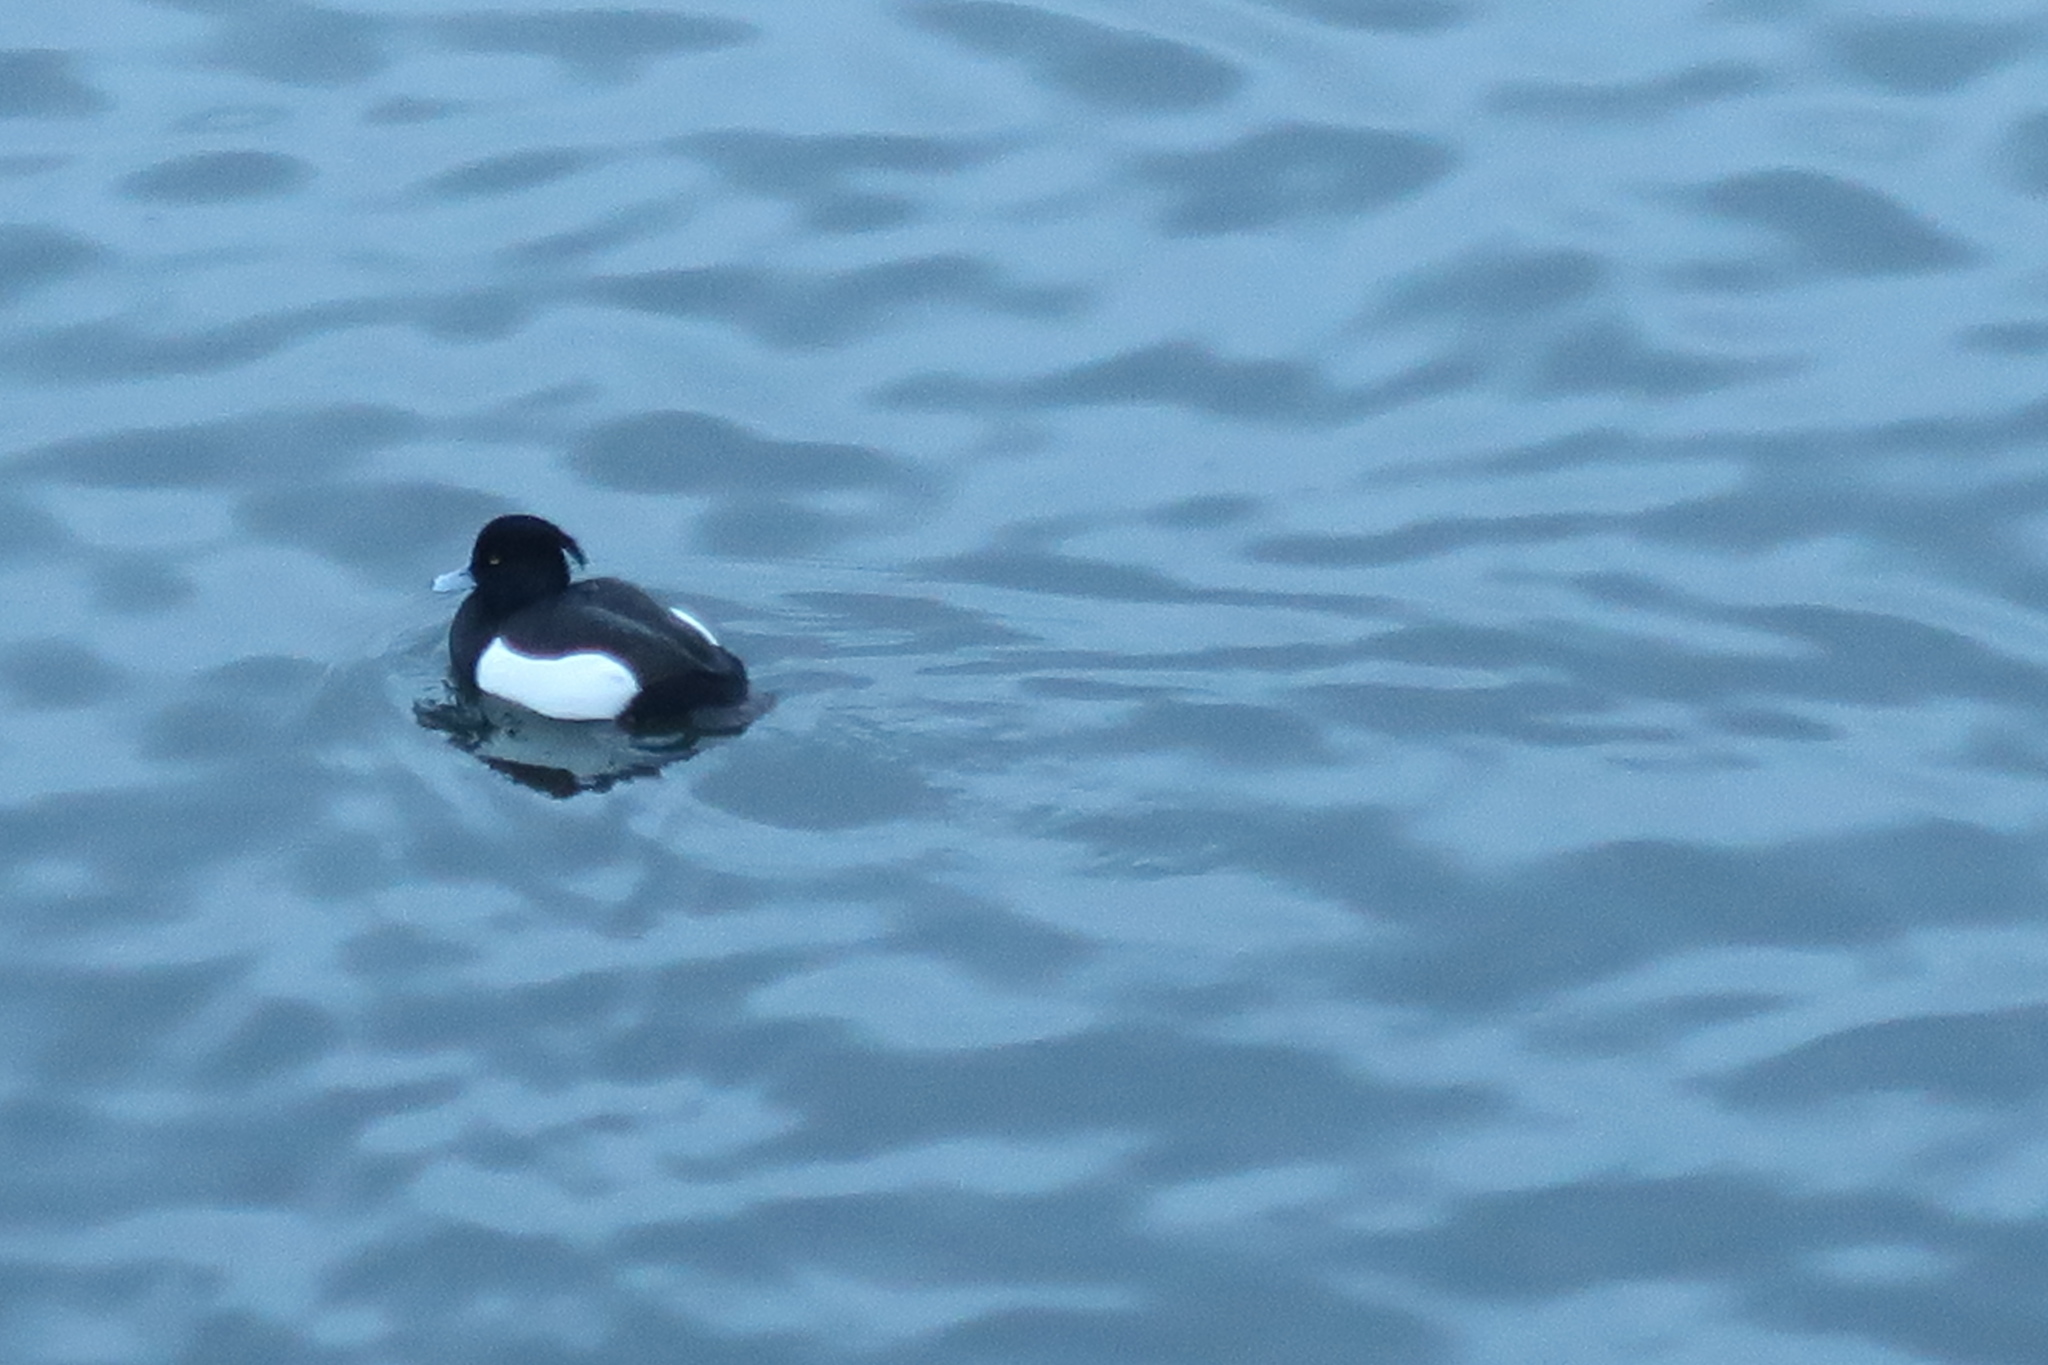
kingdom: Animalia
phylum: Chordata
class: Aves
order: Anseriformes
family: Anatidae
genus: Aythya
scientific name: Aythya fuligula
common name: Tufted duck
